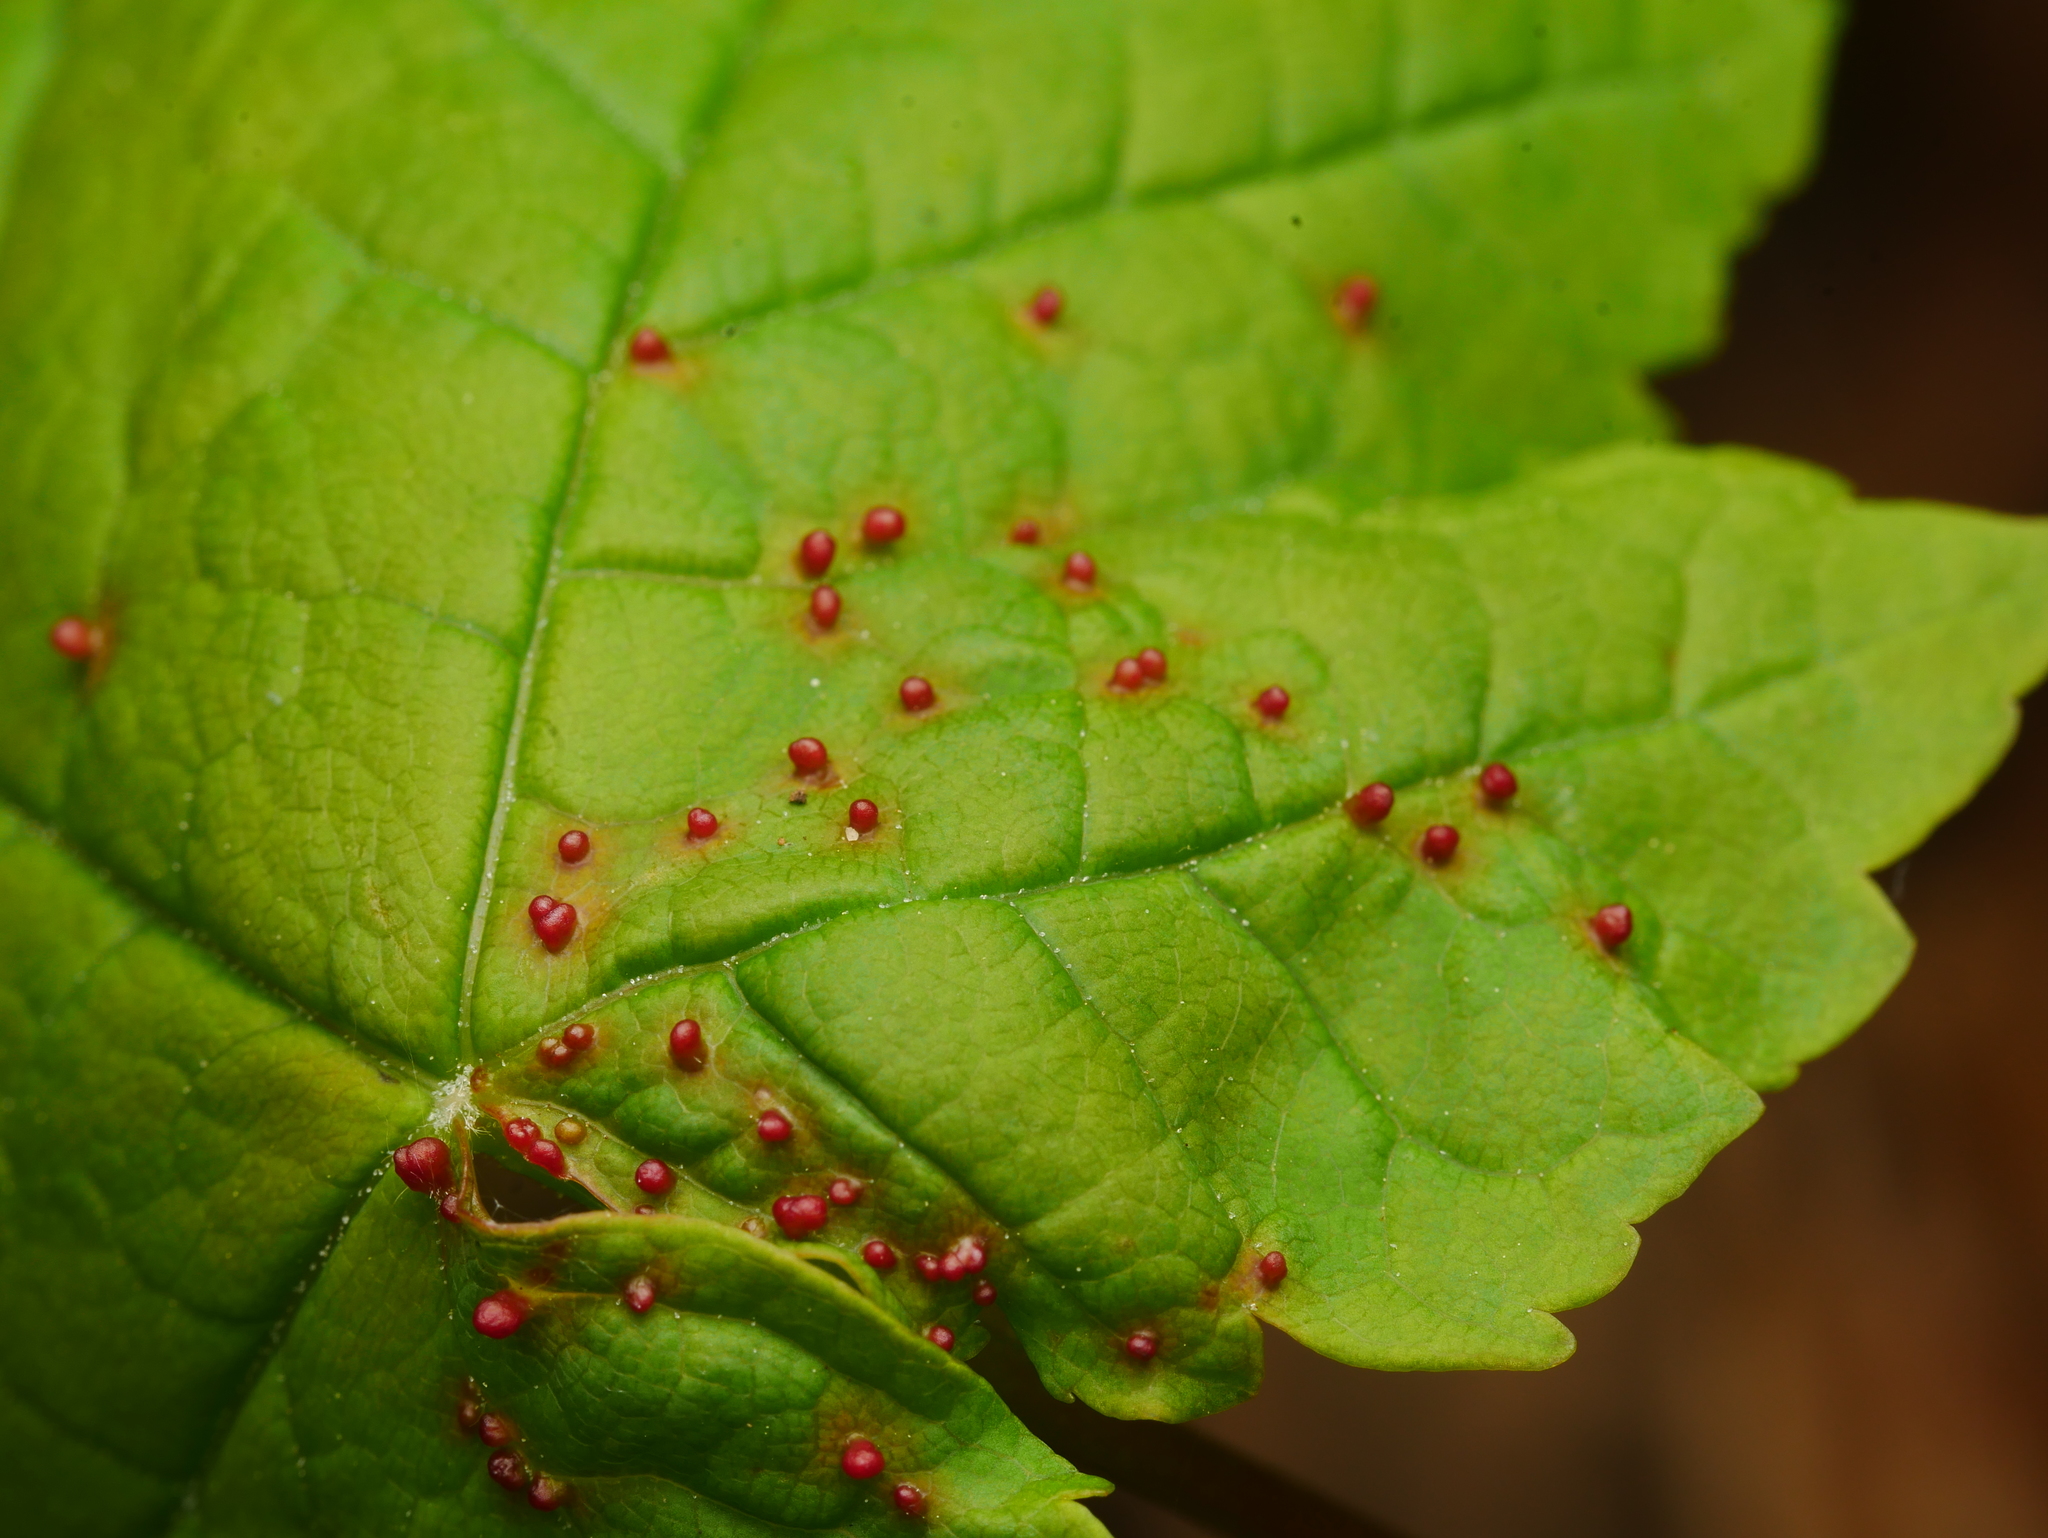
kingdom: Animalia
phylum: Arthropoda
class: Arachnida
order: Trombidiformes
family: Eriophyidae
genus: Aceria
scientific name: Aceria cephaloneus
